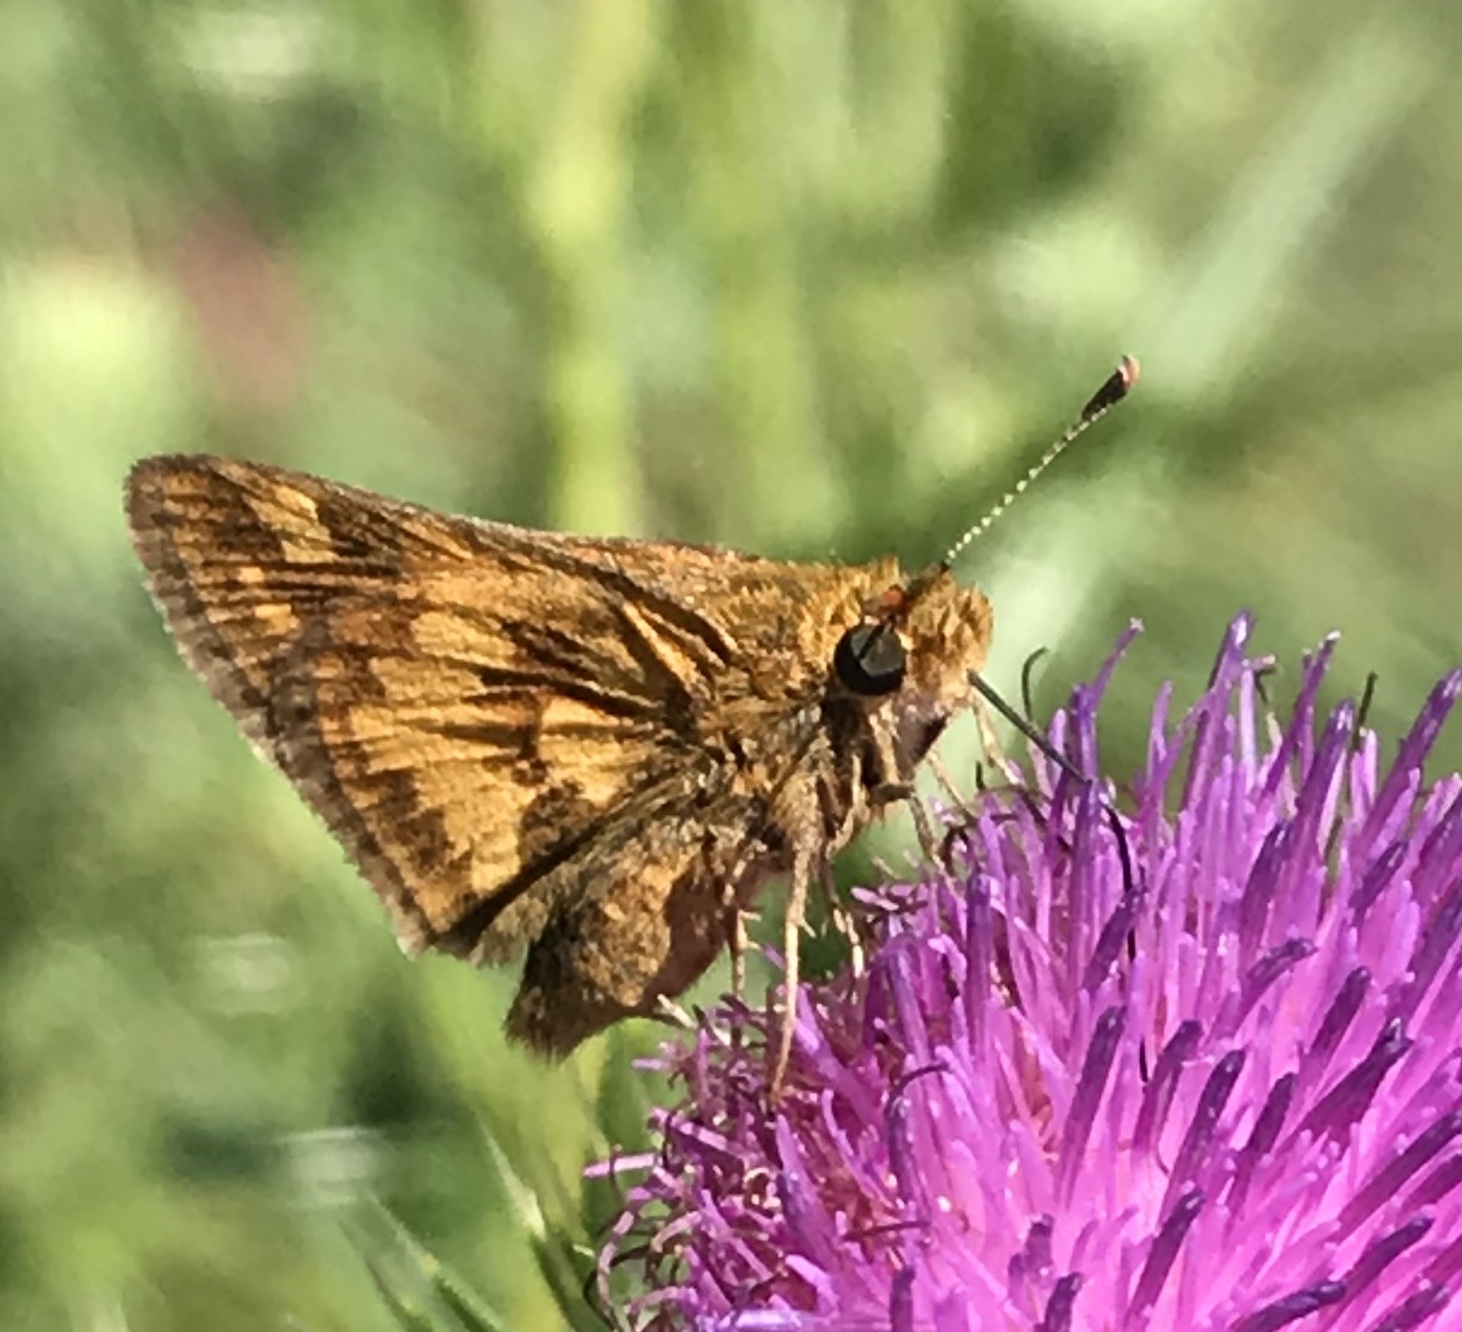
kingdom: Animalia
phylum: Arthropoda
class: Insecta
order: Lepidoptera
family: Hesperiidae
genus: Polites
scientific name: Polites coras
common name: Peck's skipper
